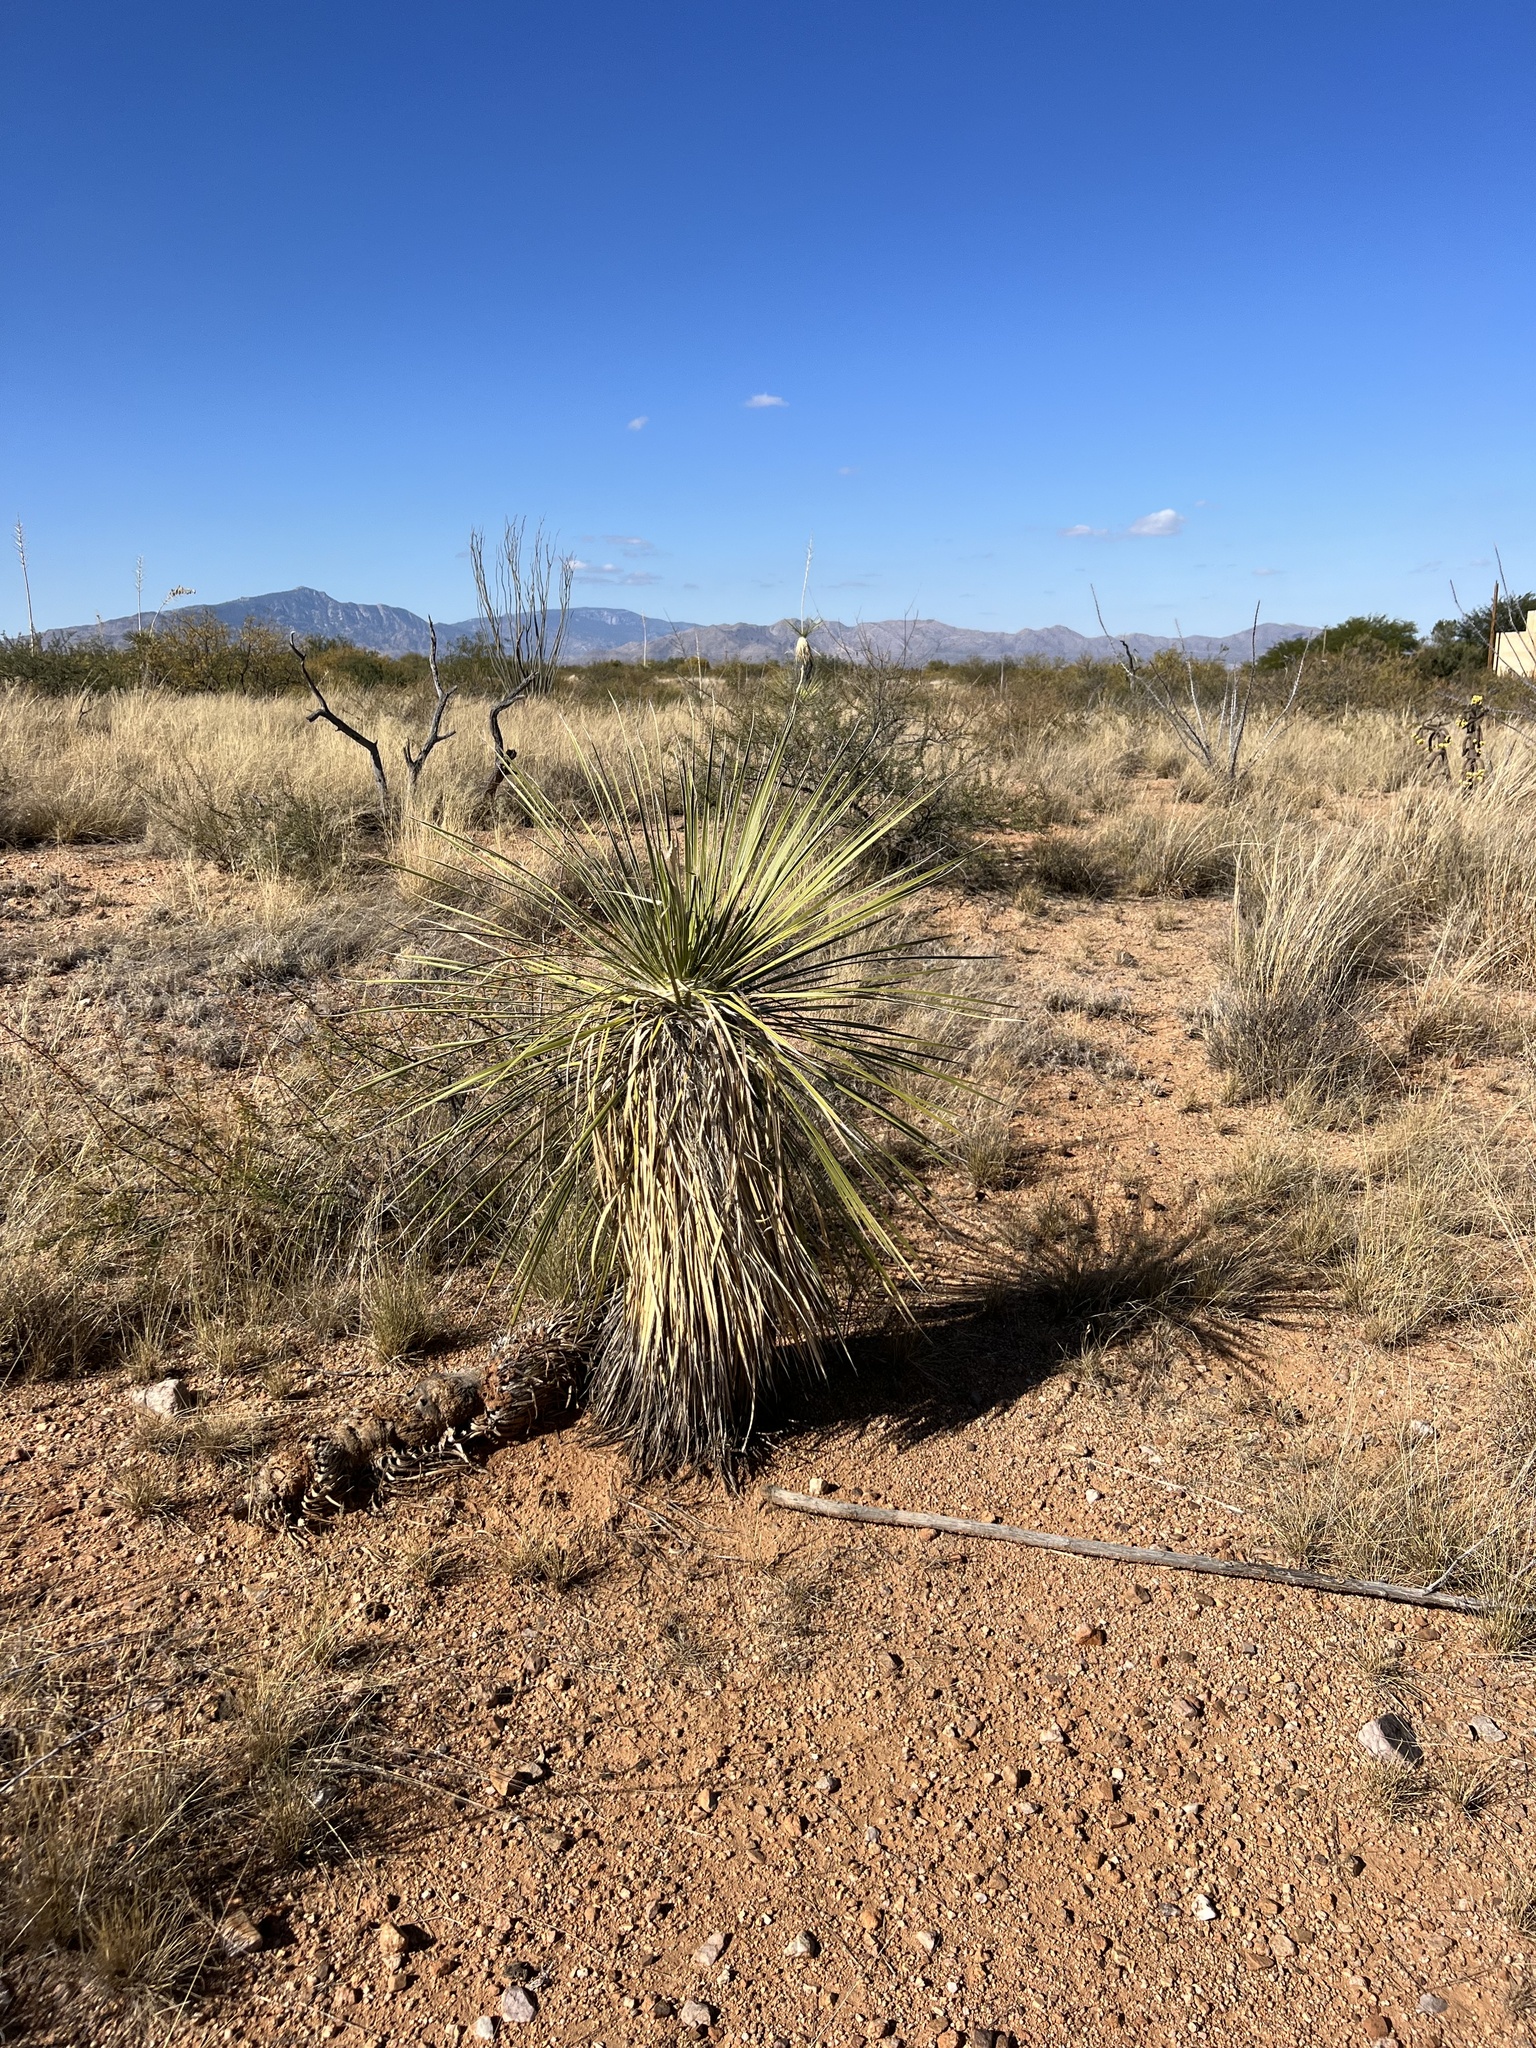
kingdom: Plantae
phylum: Tracheophyta
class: Liliopsida
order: Asparagales
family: Asparagaceae
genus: Yucca
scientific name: Yucca elata
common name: Palmella
